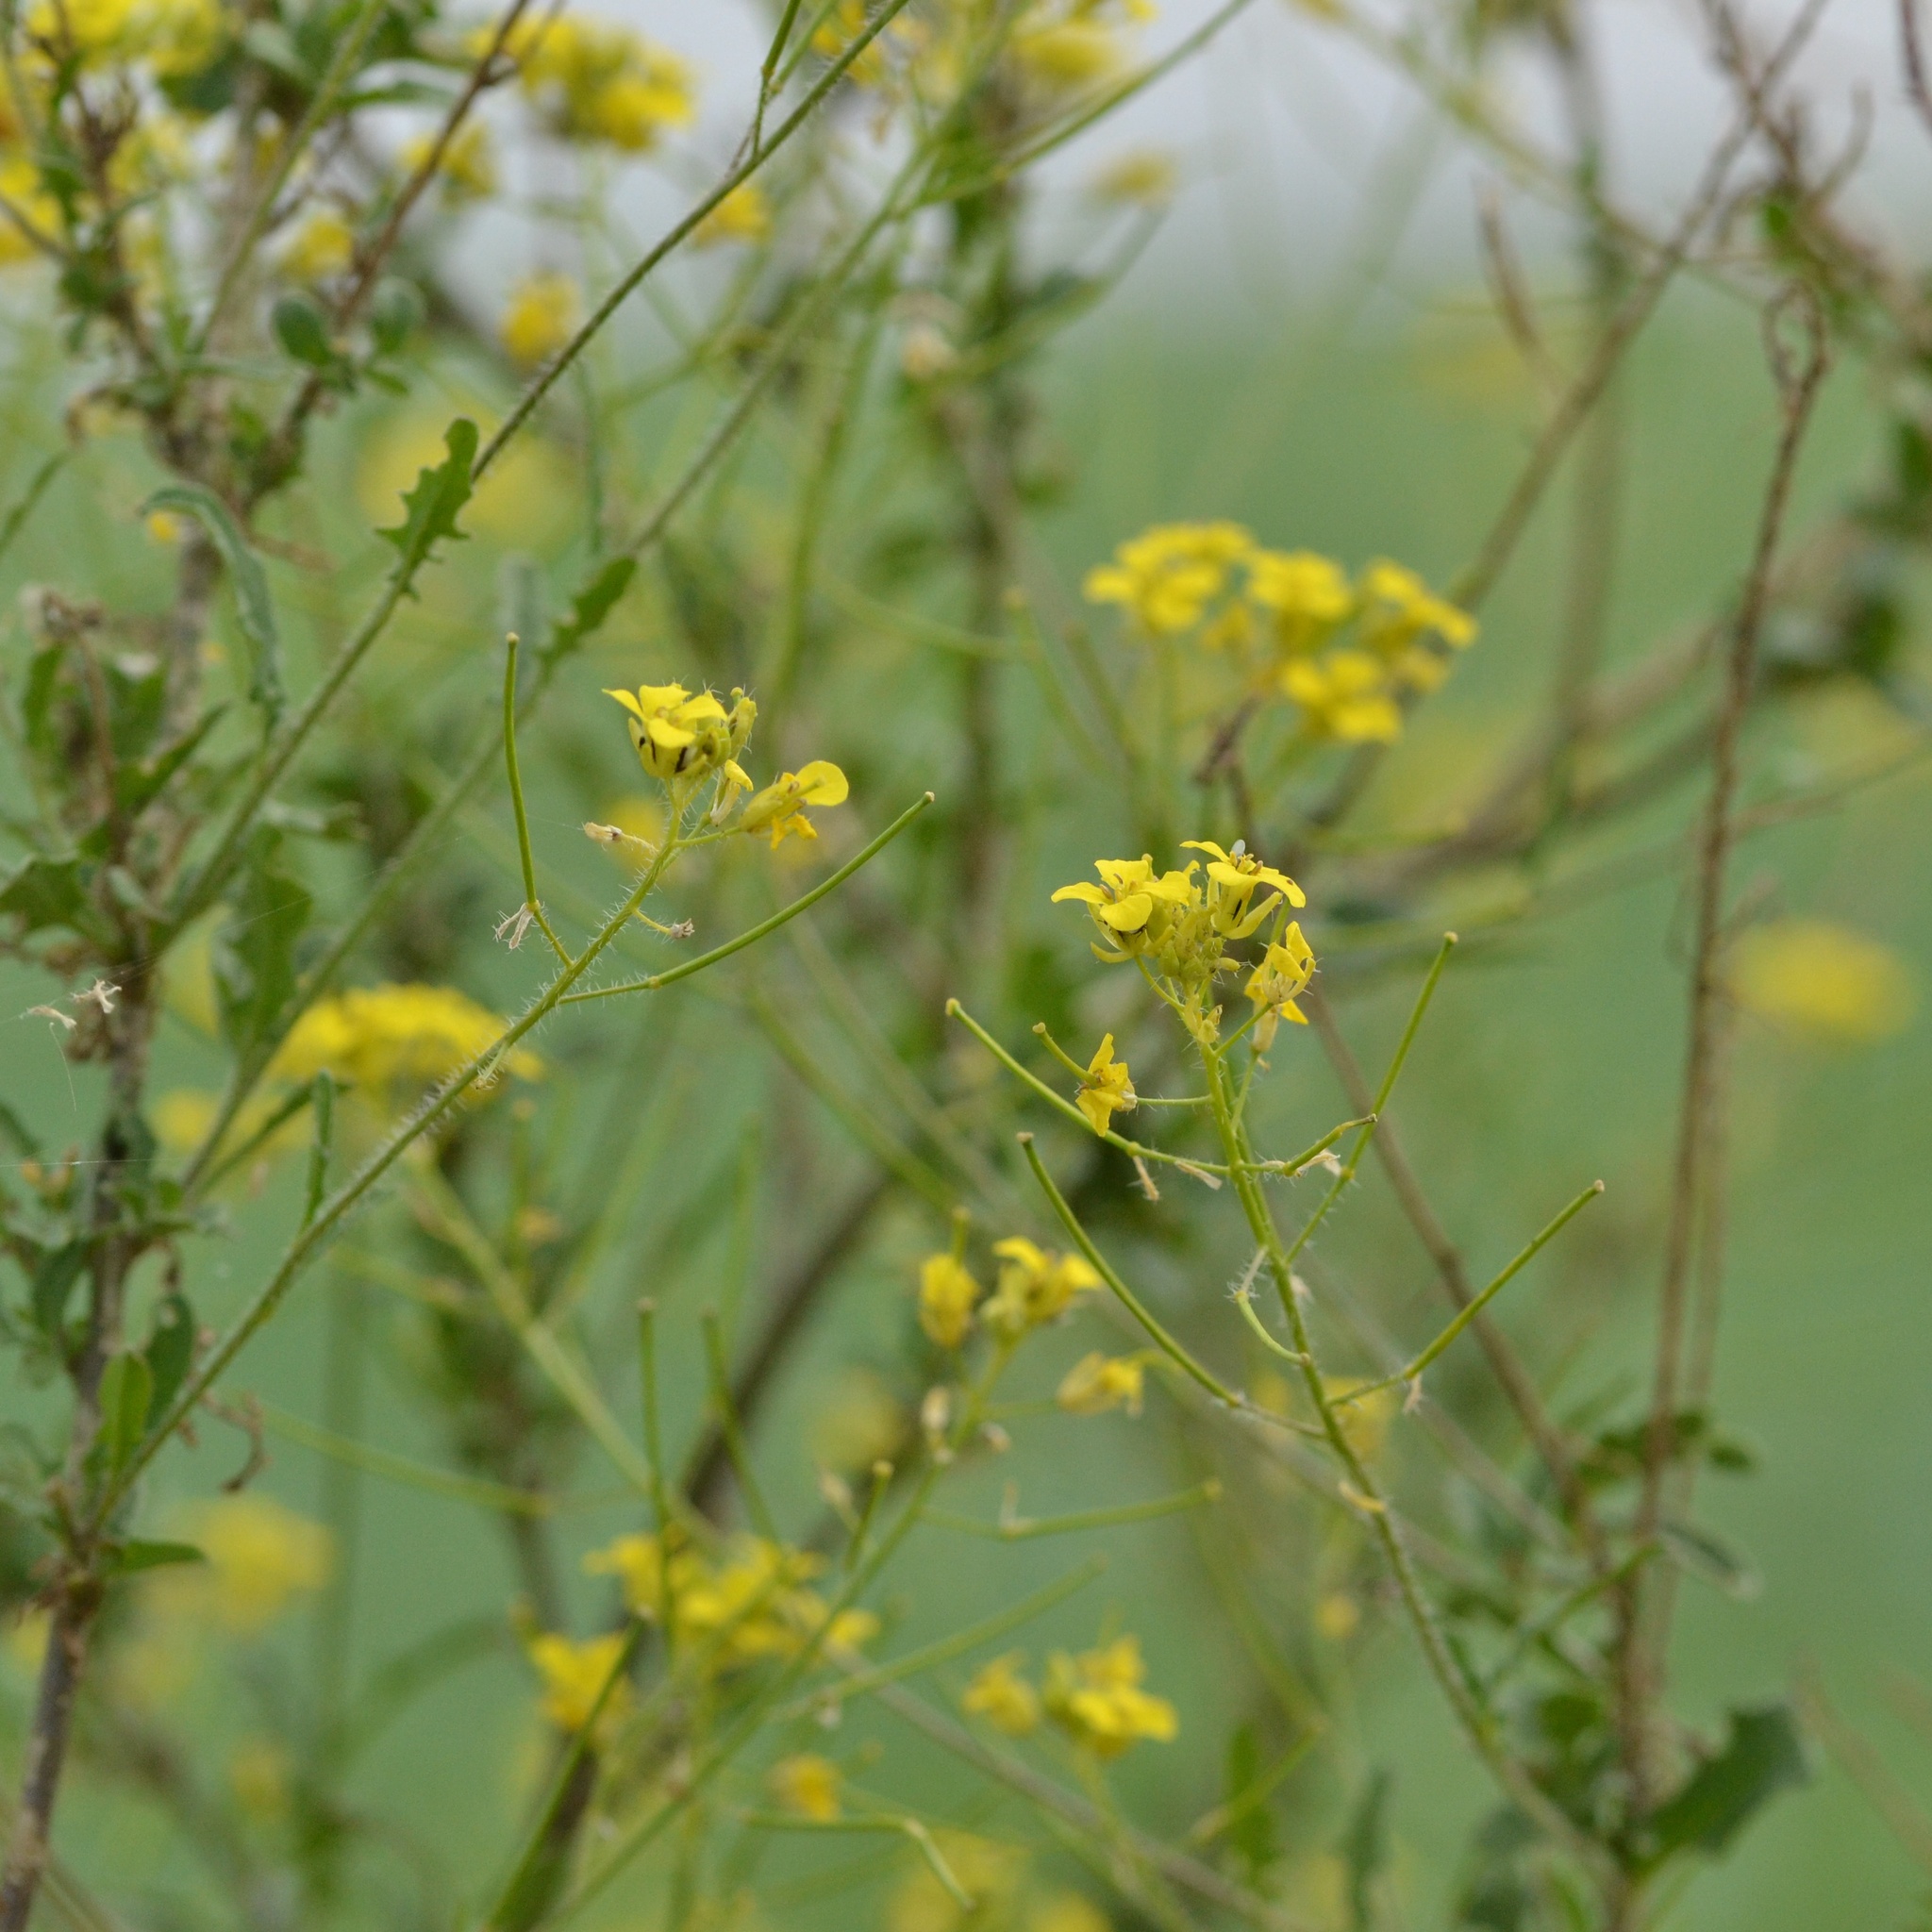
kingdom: Plantae
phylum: Tracheophyta
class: Magnoliopsida
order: Brassicales
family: Brassicaceae
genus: Sisymbrium
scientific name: Sisymbrium loeselii
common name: False london-rocket
